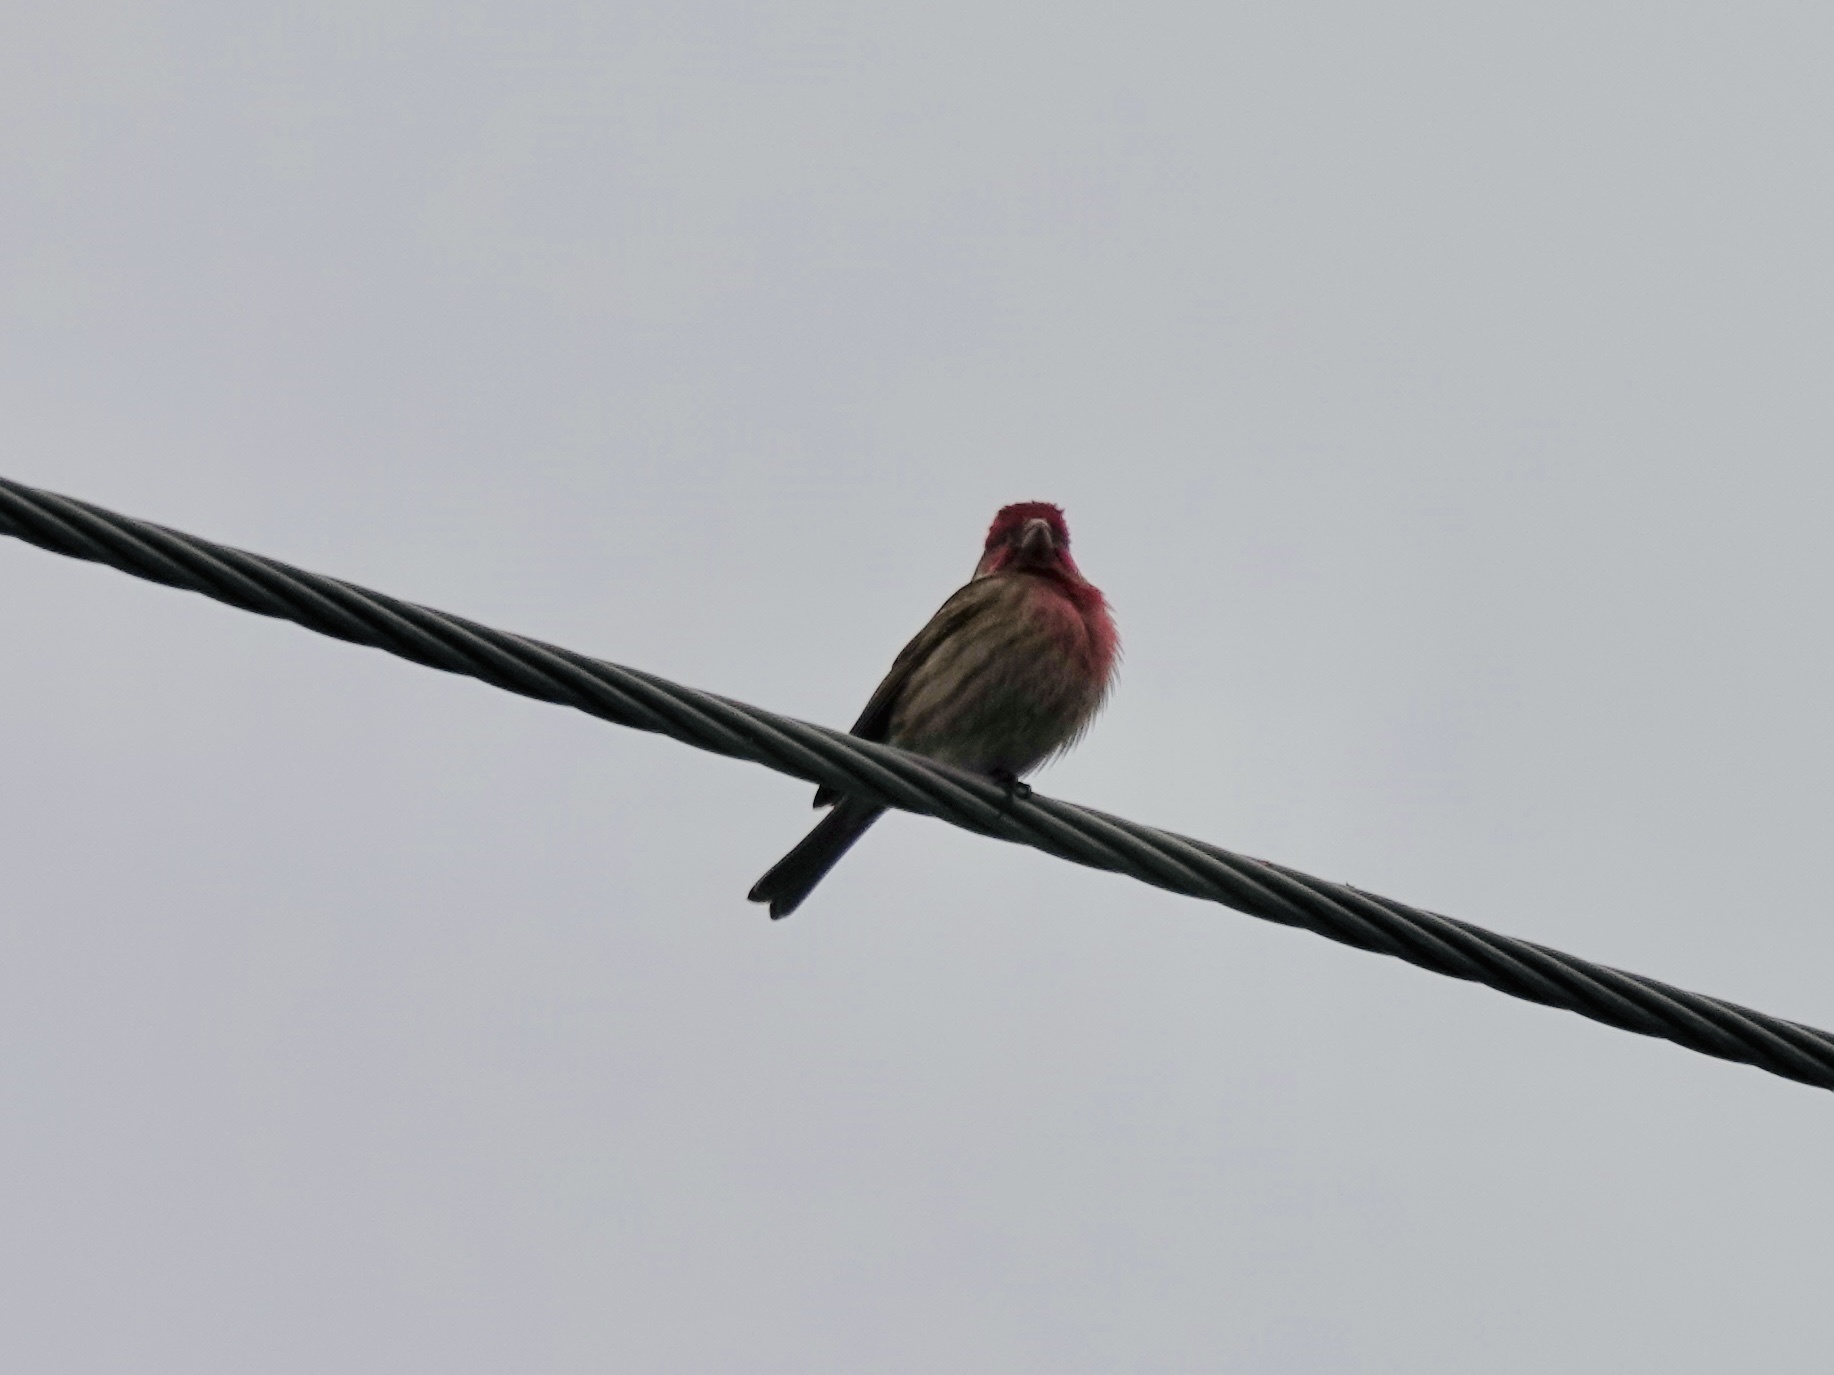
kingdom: Animalia
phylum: Chordata
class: Aves
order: Passeriformes
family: Fringillidae
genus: Haemorhous
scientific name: Haemorhous mexicanus
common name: House finch
